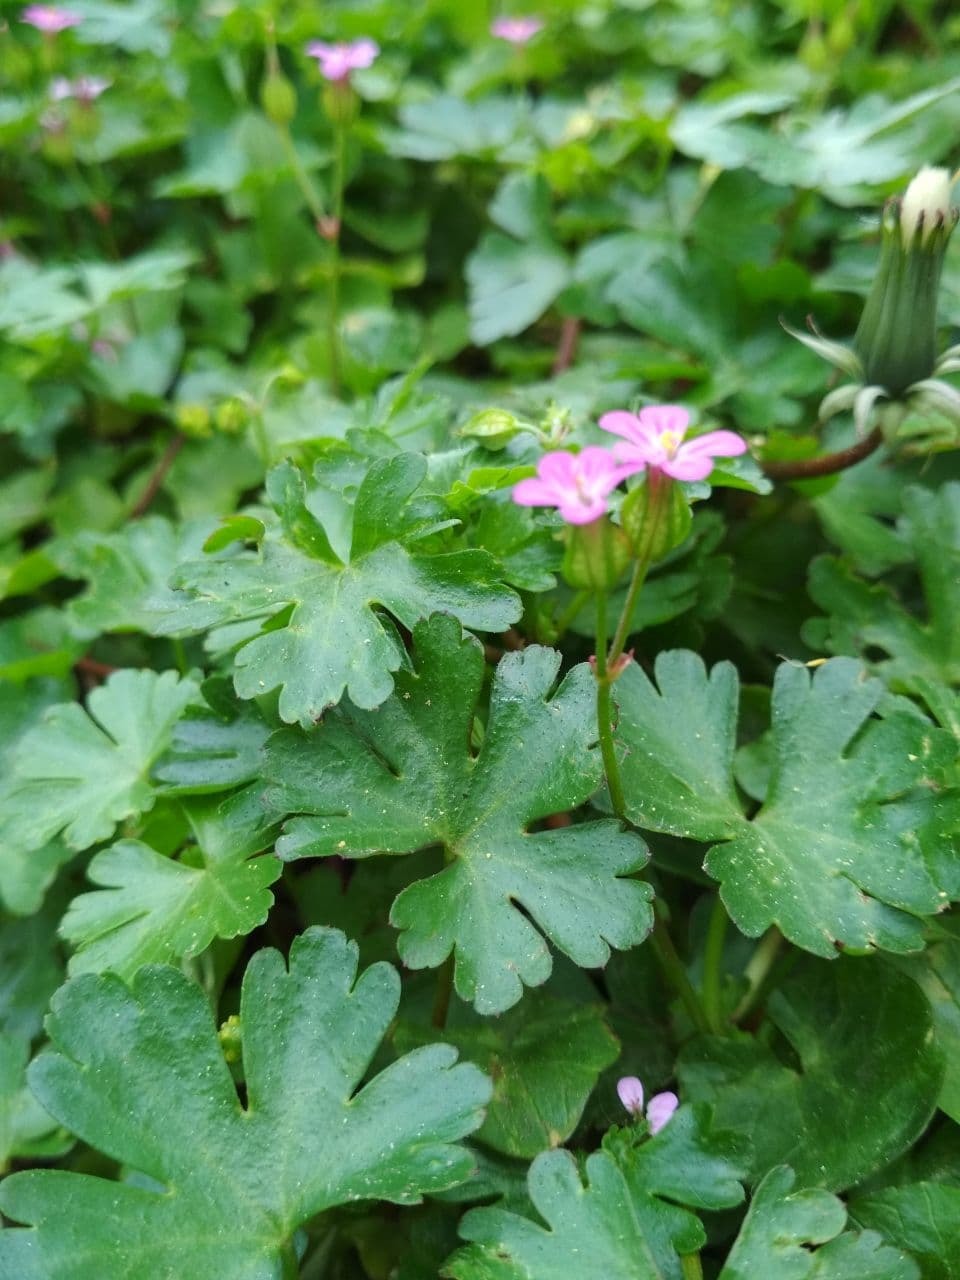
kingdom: Plantae
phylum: Tracheophyta
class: Magnoliopsida
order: Geraniales
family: Geraniaceae
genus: Geranium
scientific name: Geranium lucidum
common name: Shining crane's-bill
